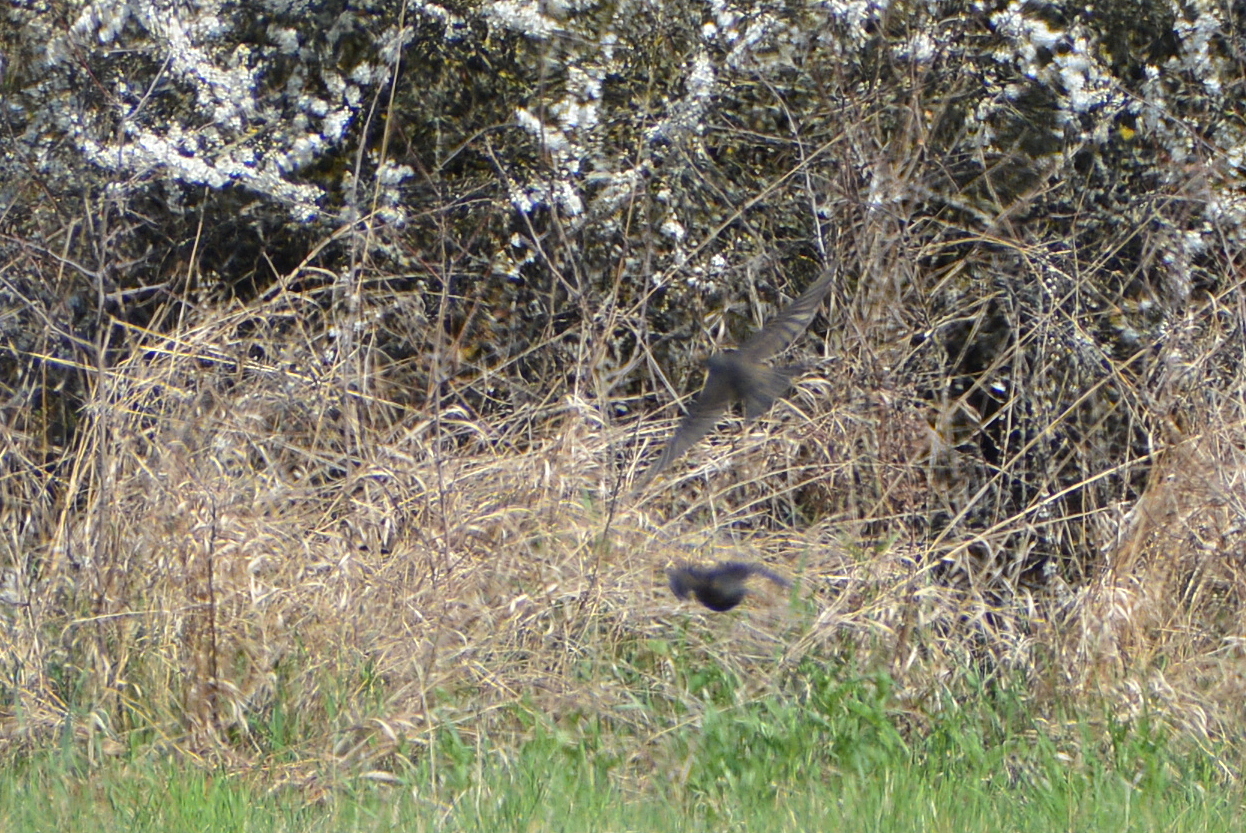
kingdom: Animalia
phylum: Chordata
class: Aves
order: Passeriformes
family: Sturnidae
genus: Sturnus
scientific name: Sturnus vulgaris
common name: Common starling
